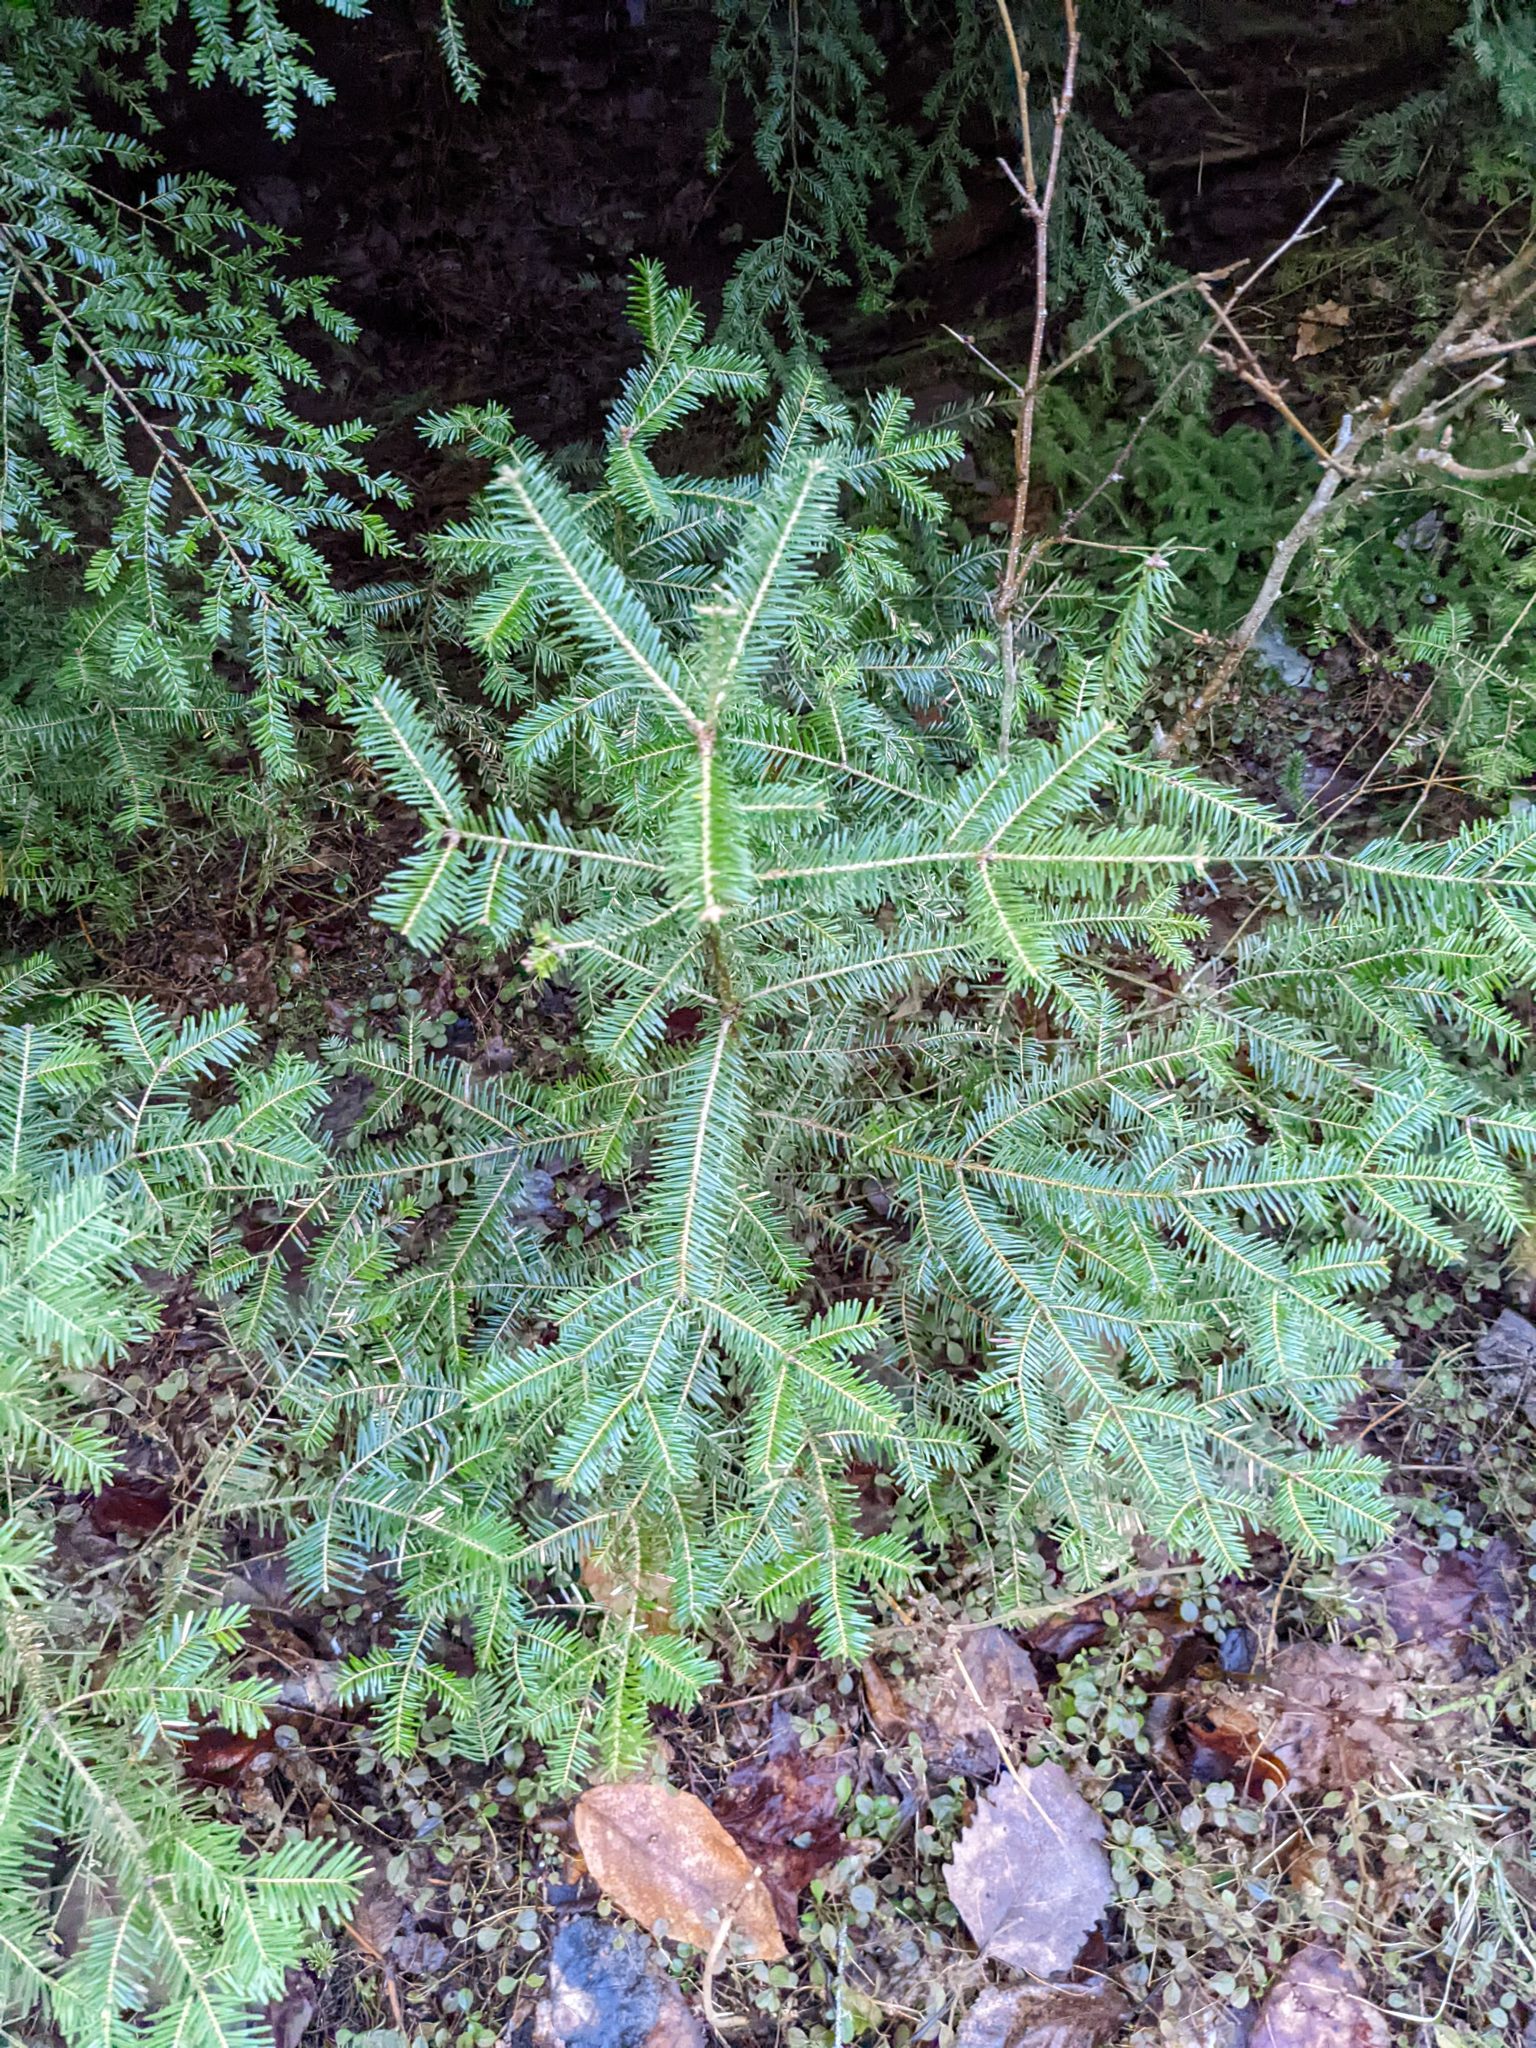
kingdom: Plantae
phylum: Tracheophyta
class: Pinopsida
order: Pinales
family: Pinaceae
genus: Abies
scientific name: Abies balsamea
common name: Balsam fir
